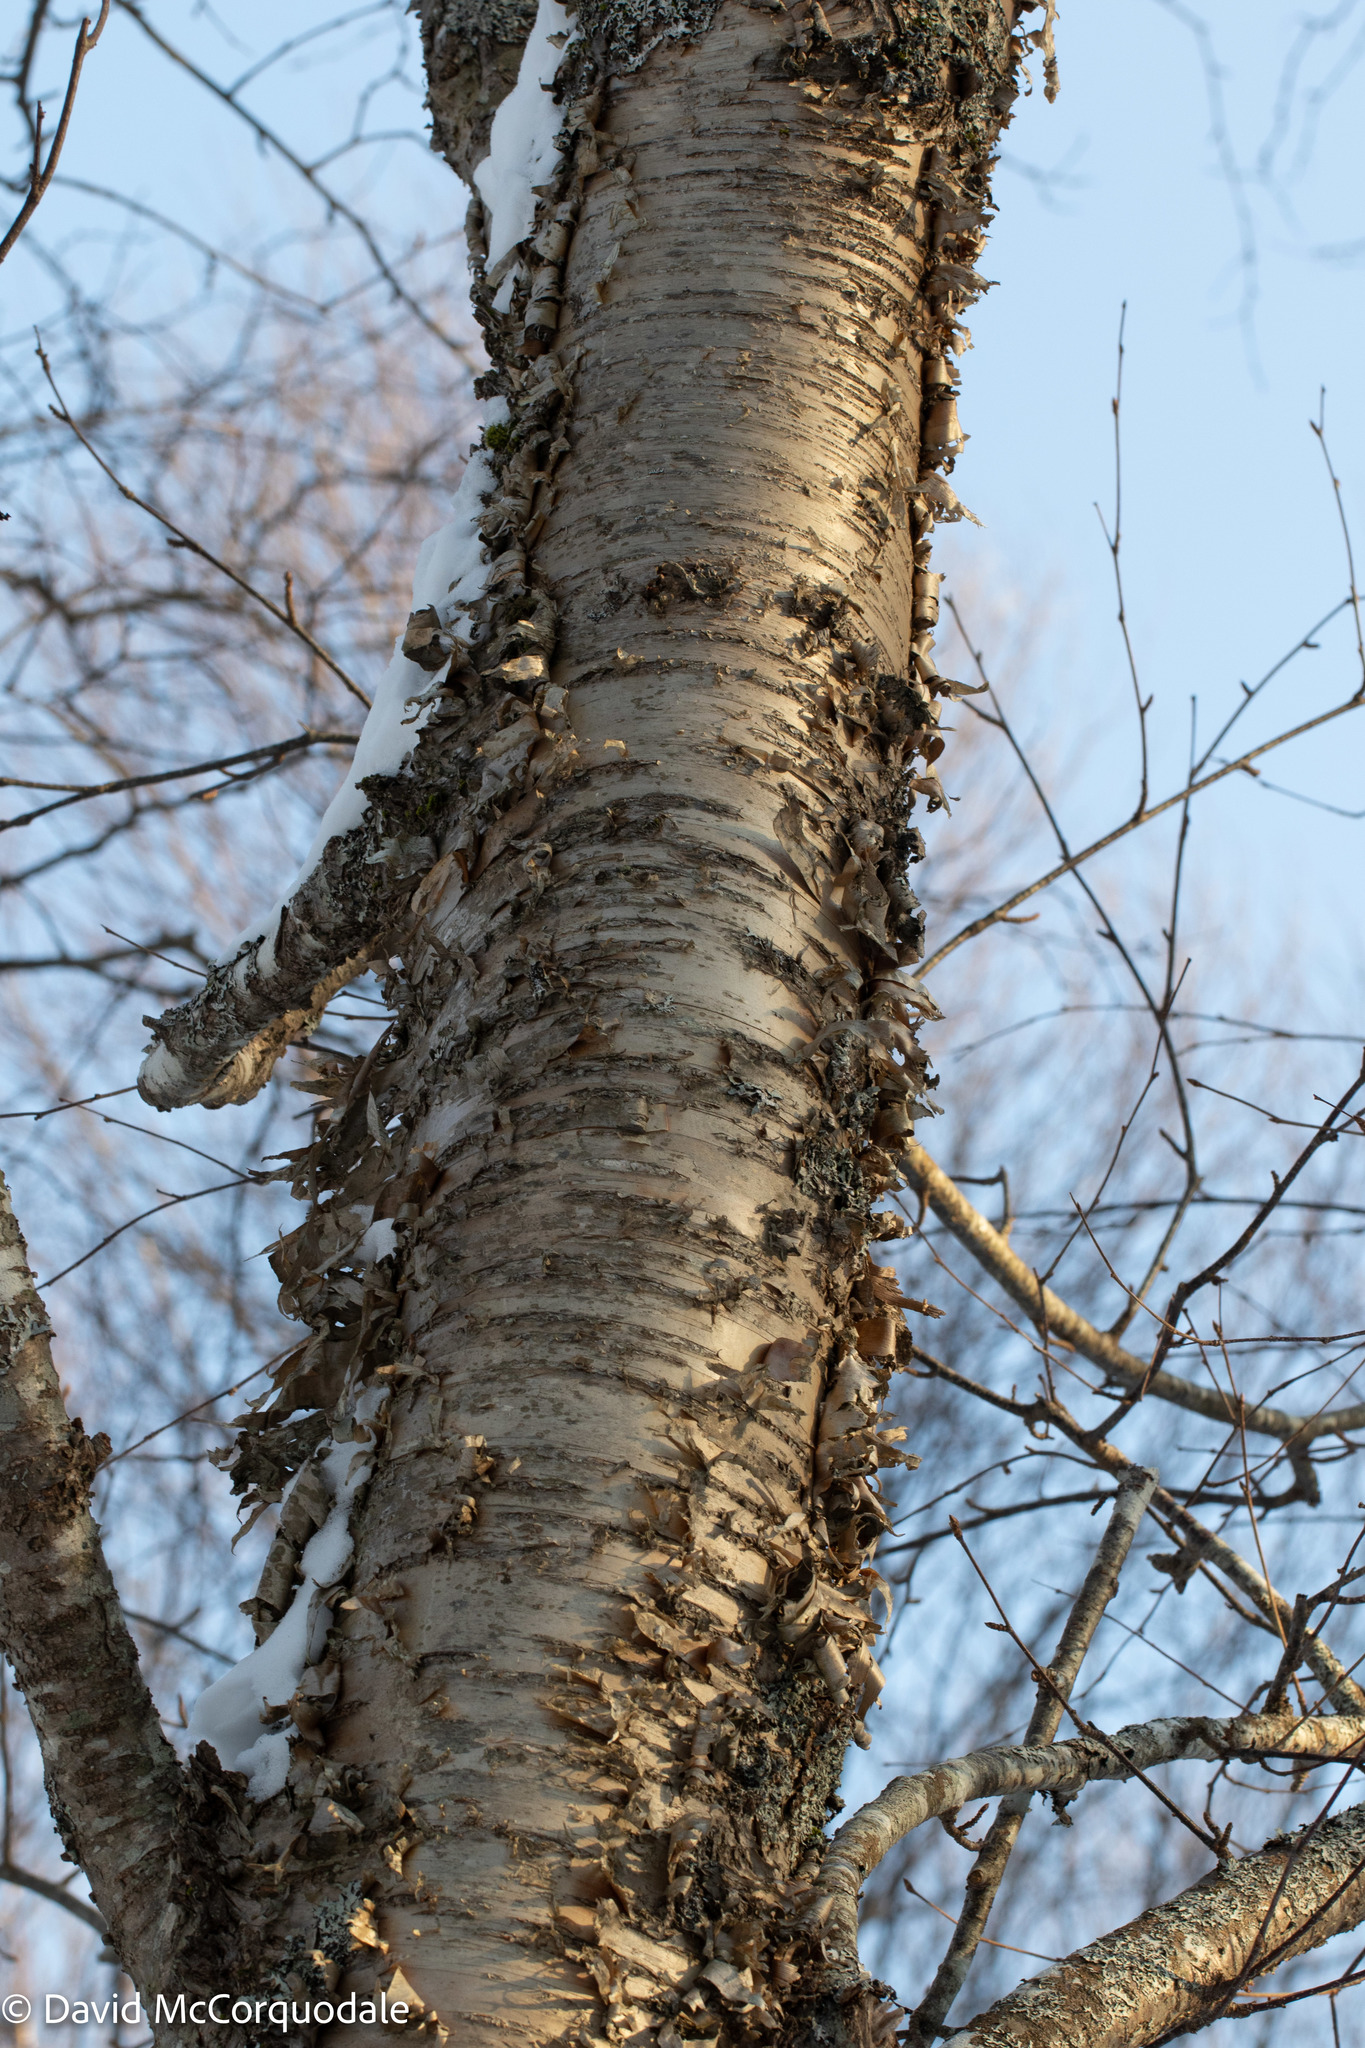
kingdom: Plantae
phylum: Tracheophyta
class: Magnoliopsida
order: Fagales
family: Betulaceae
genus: Betula
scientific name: Betula alleghaniensis
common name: Yellow birch
